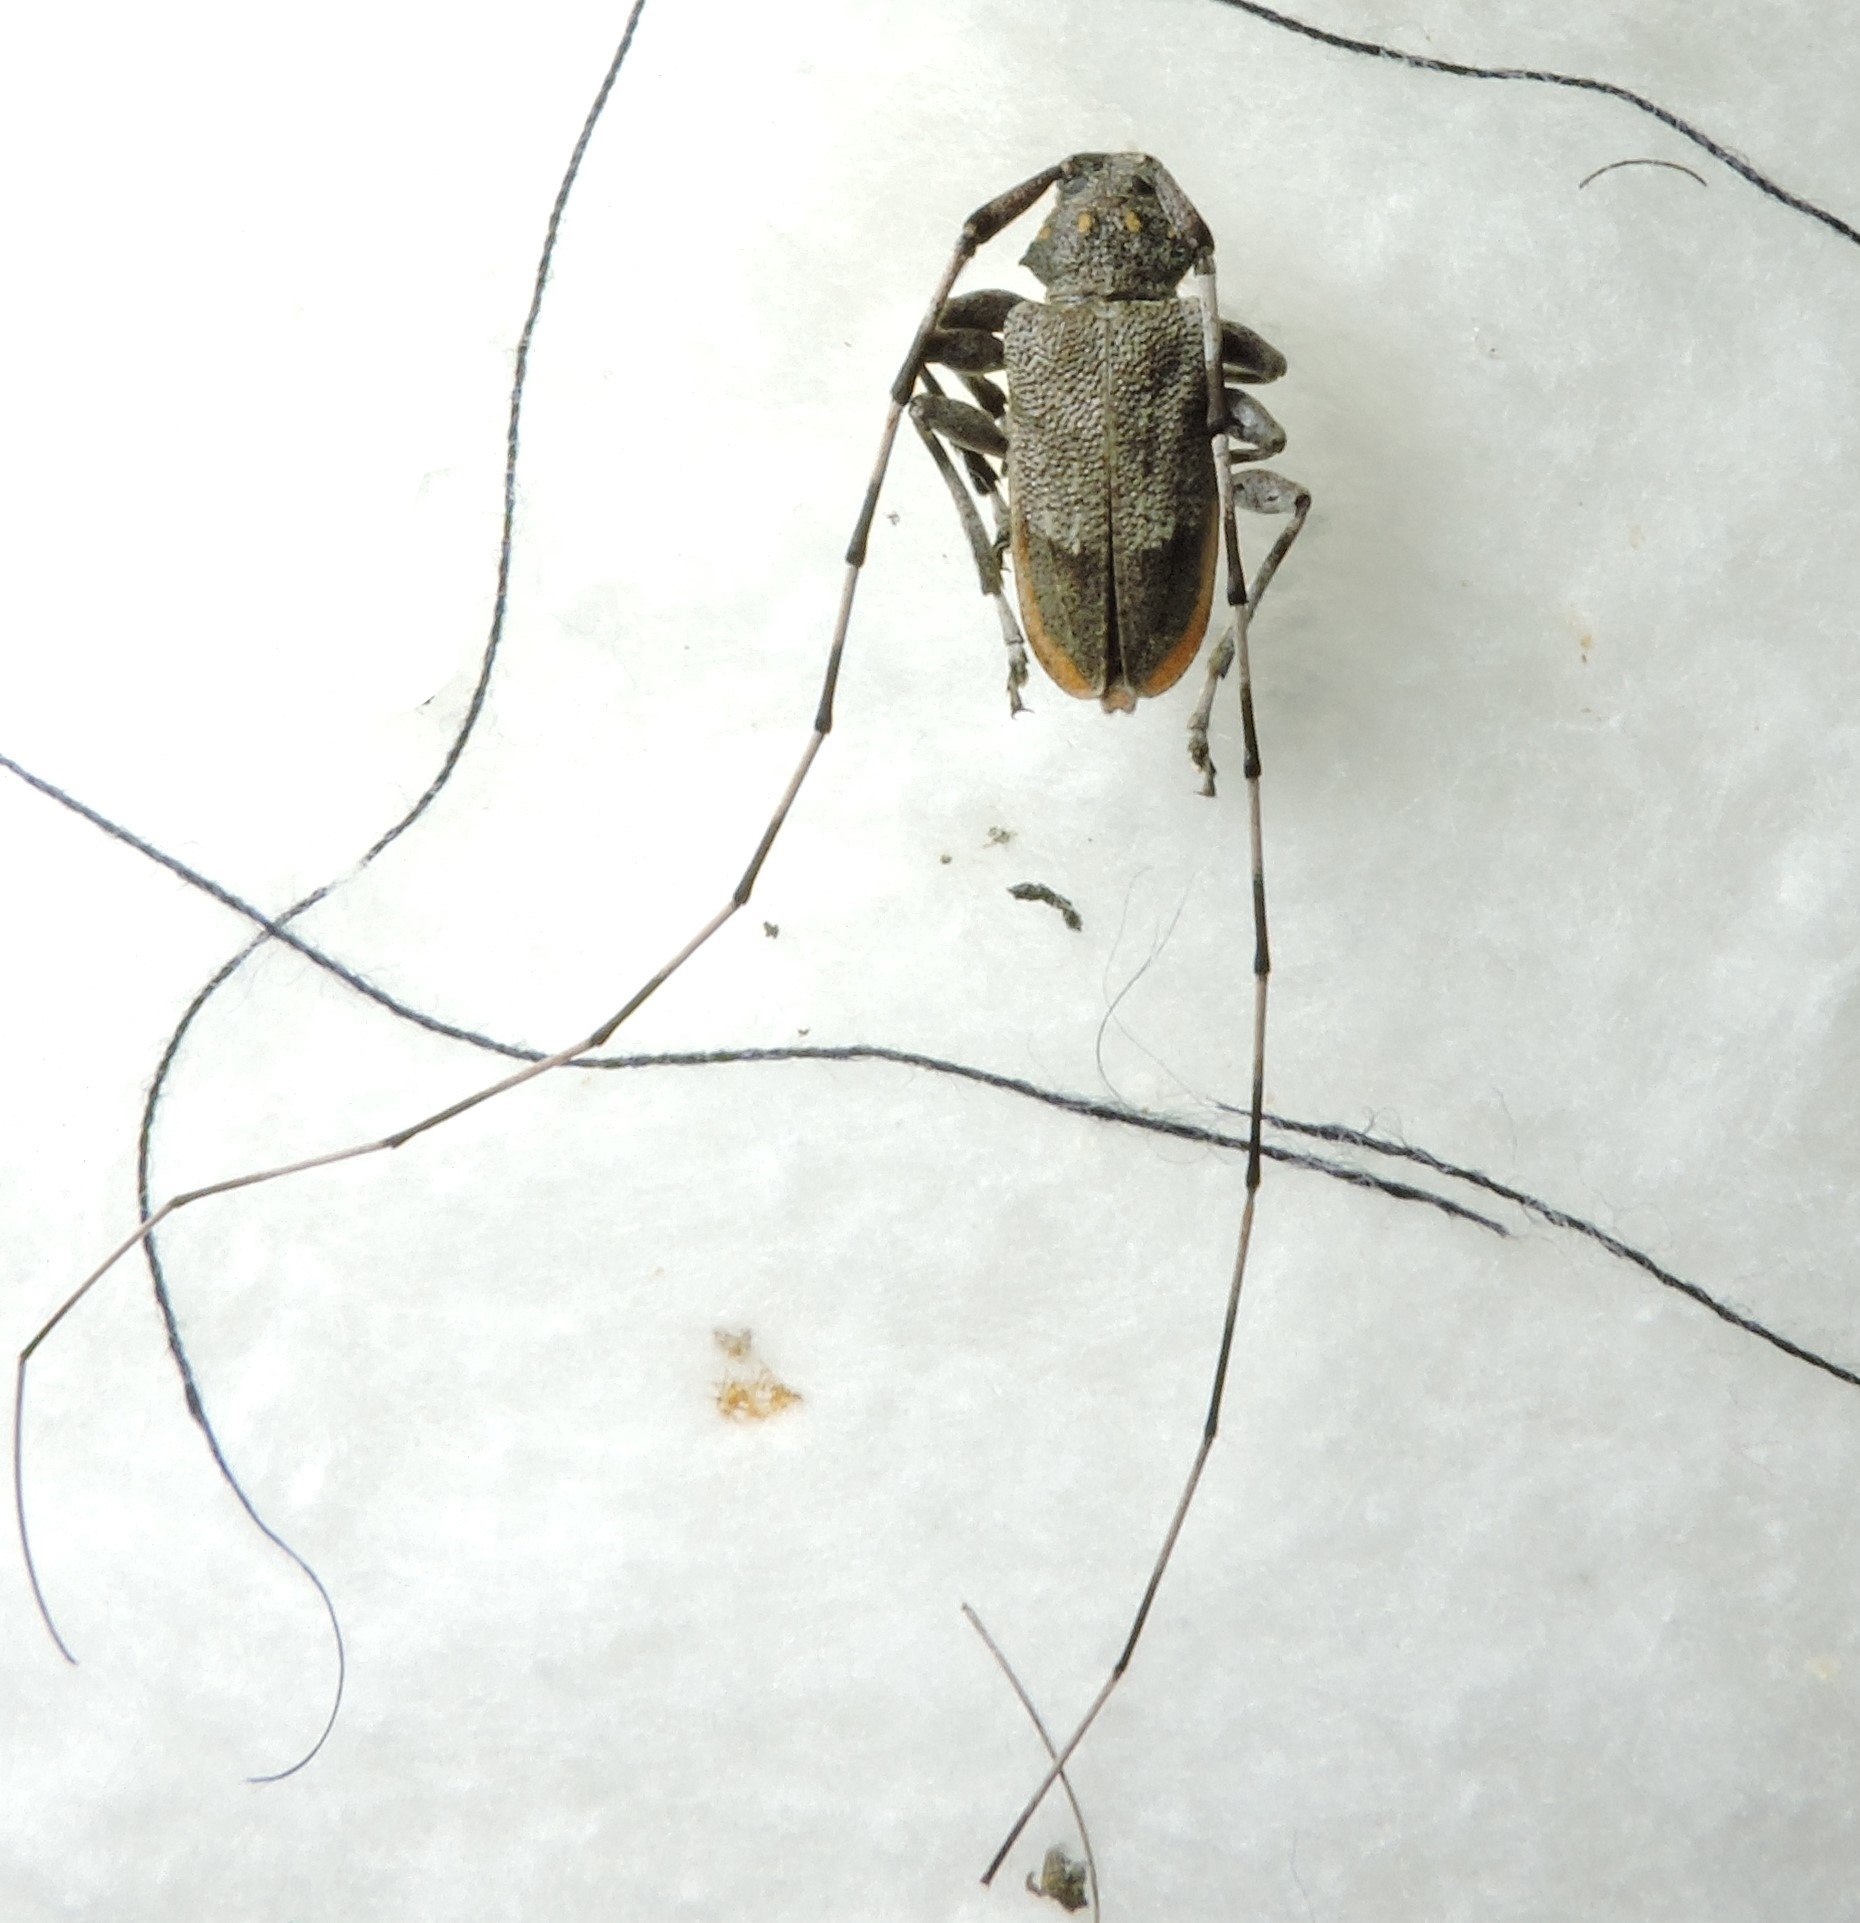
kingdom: Animalia
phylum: Arthropoda
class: Insecta
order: Coleoptera
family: Cerambycidae
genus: Acanthocinus
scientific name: Acanthocinus aedilis
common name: Timberman beetle
